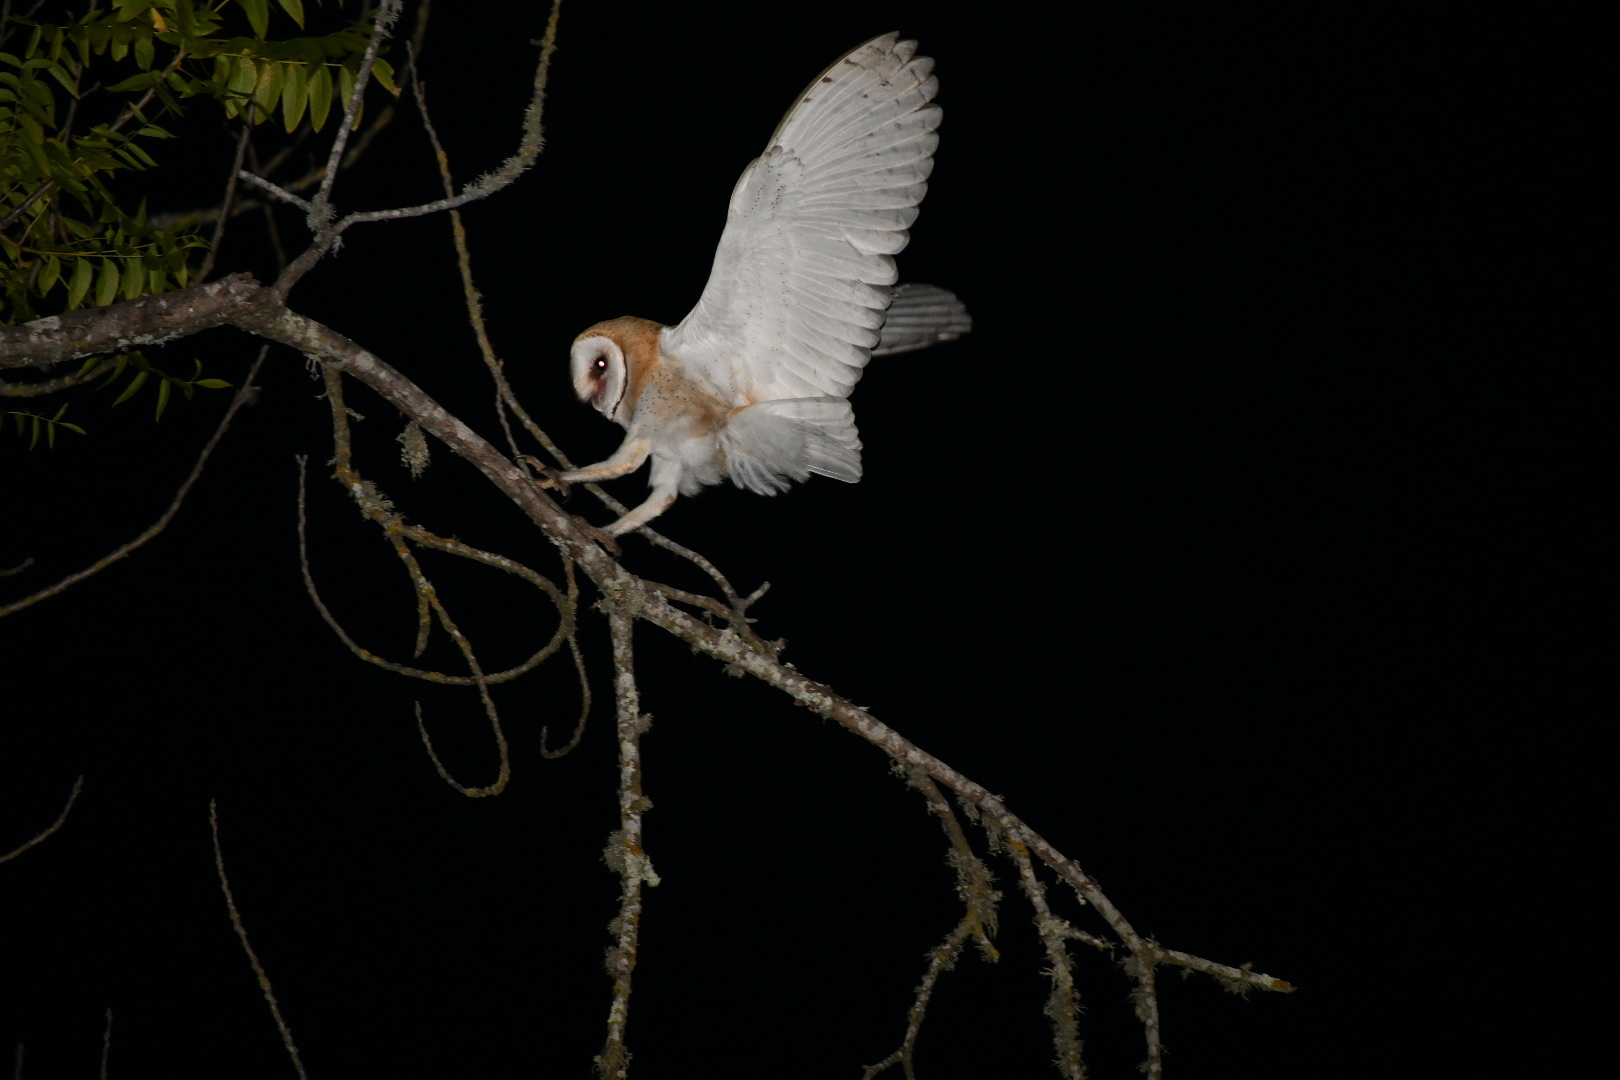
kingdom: Animalia
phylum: Chordata
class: Aves
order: Strigiformes
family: Tytonidae
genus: Tyto
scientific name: Tyto alba
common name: Barn owl
